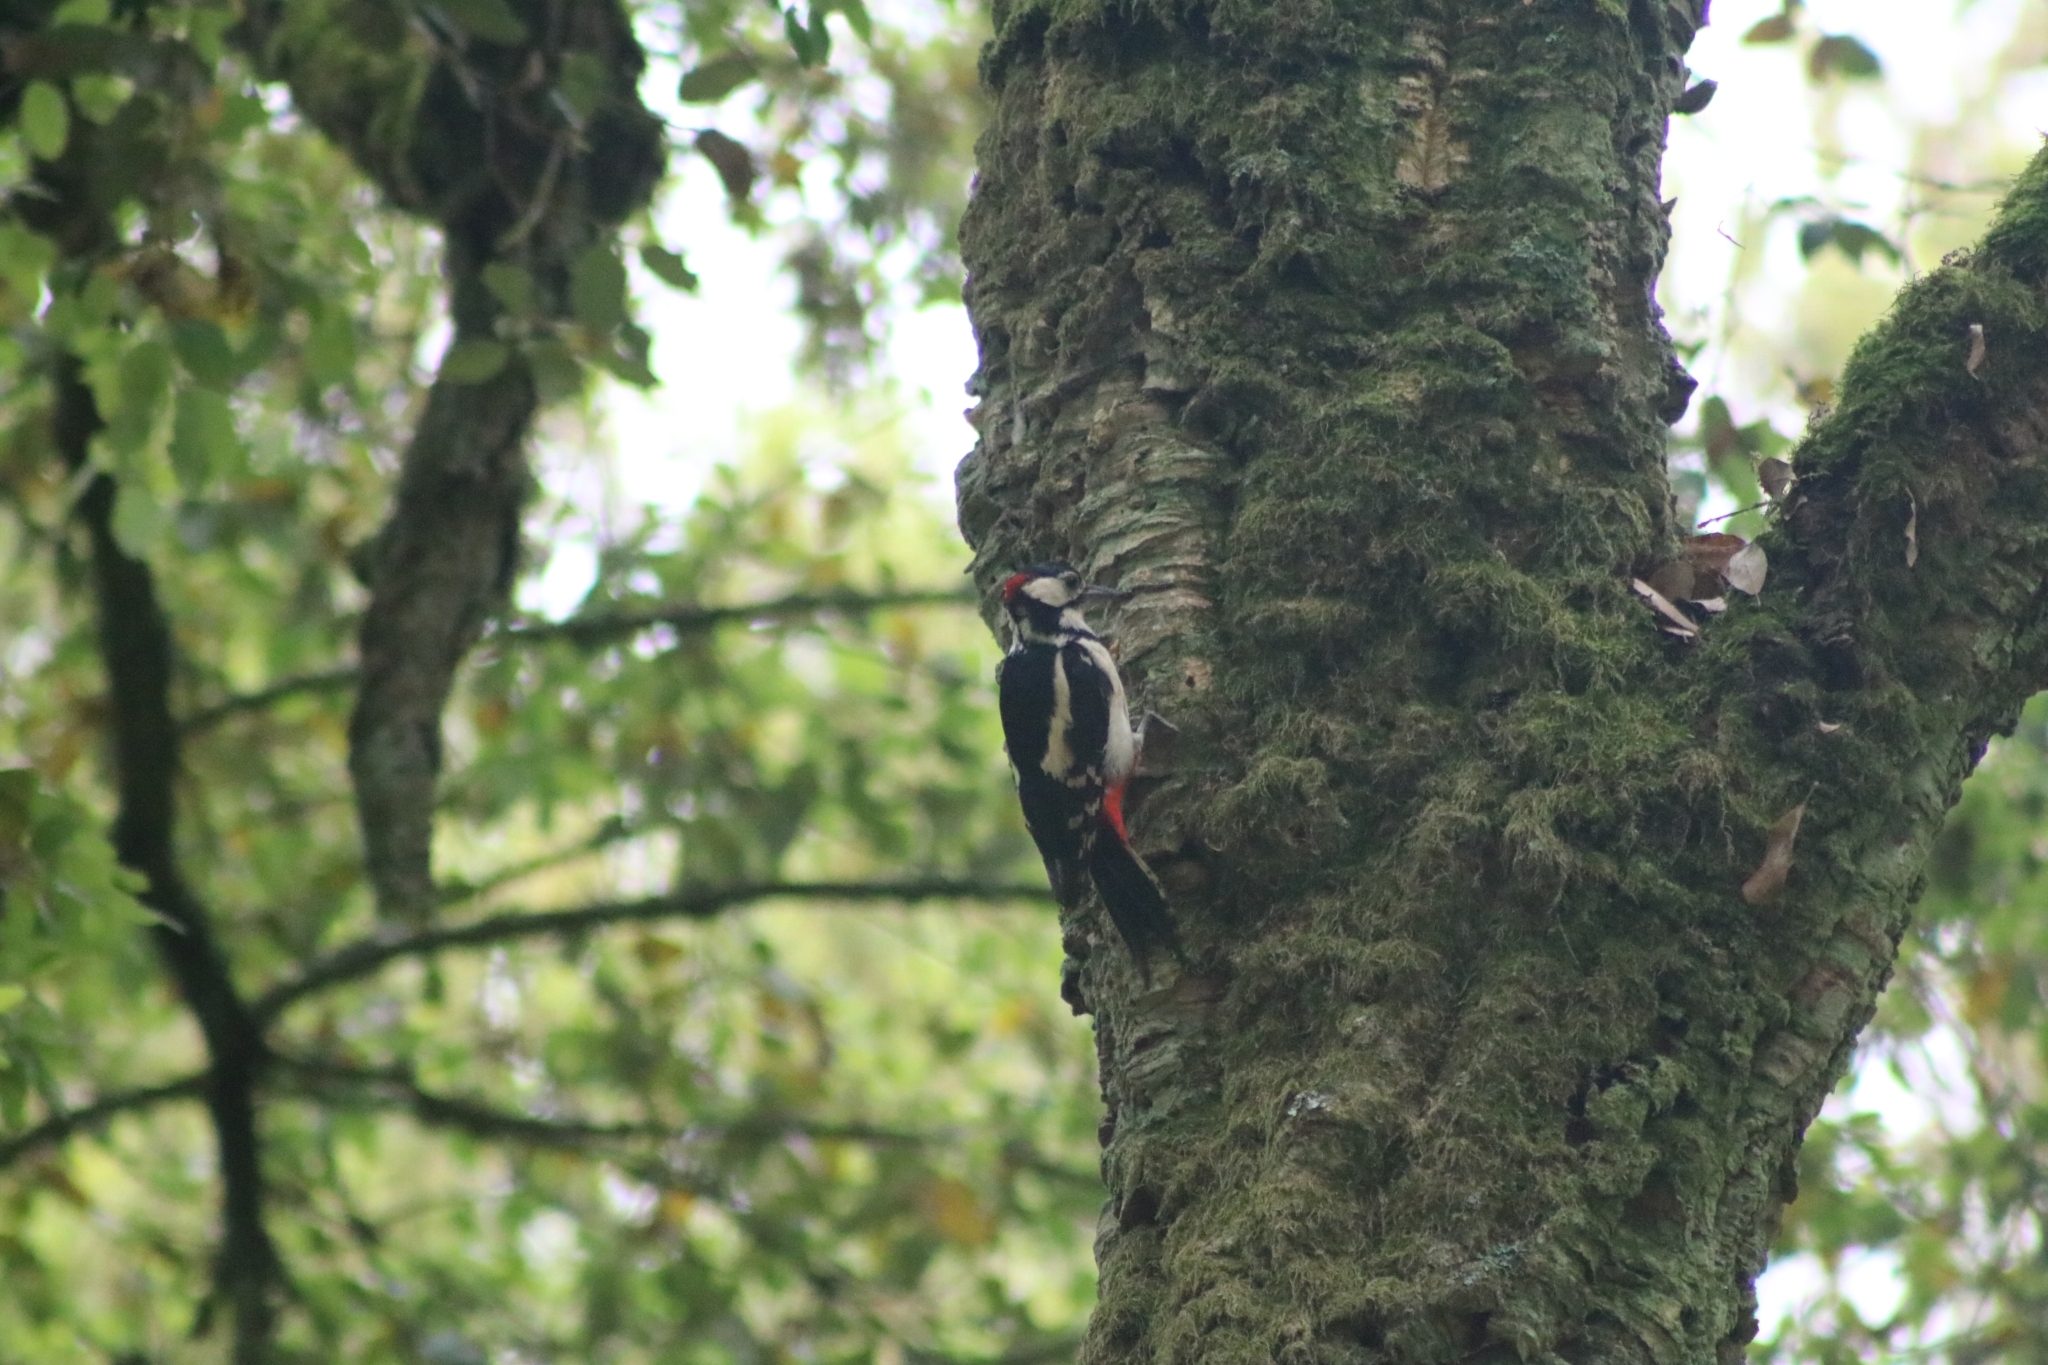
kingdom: Animalia
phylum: Chordata
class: Aves
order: Piciformes
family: Picidae
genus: Dendrocopos
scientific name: Dendrocopos major
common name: Great spotted woodpecker
